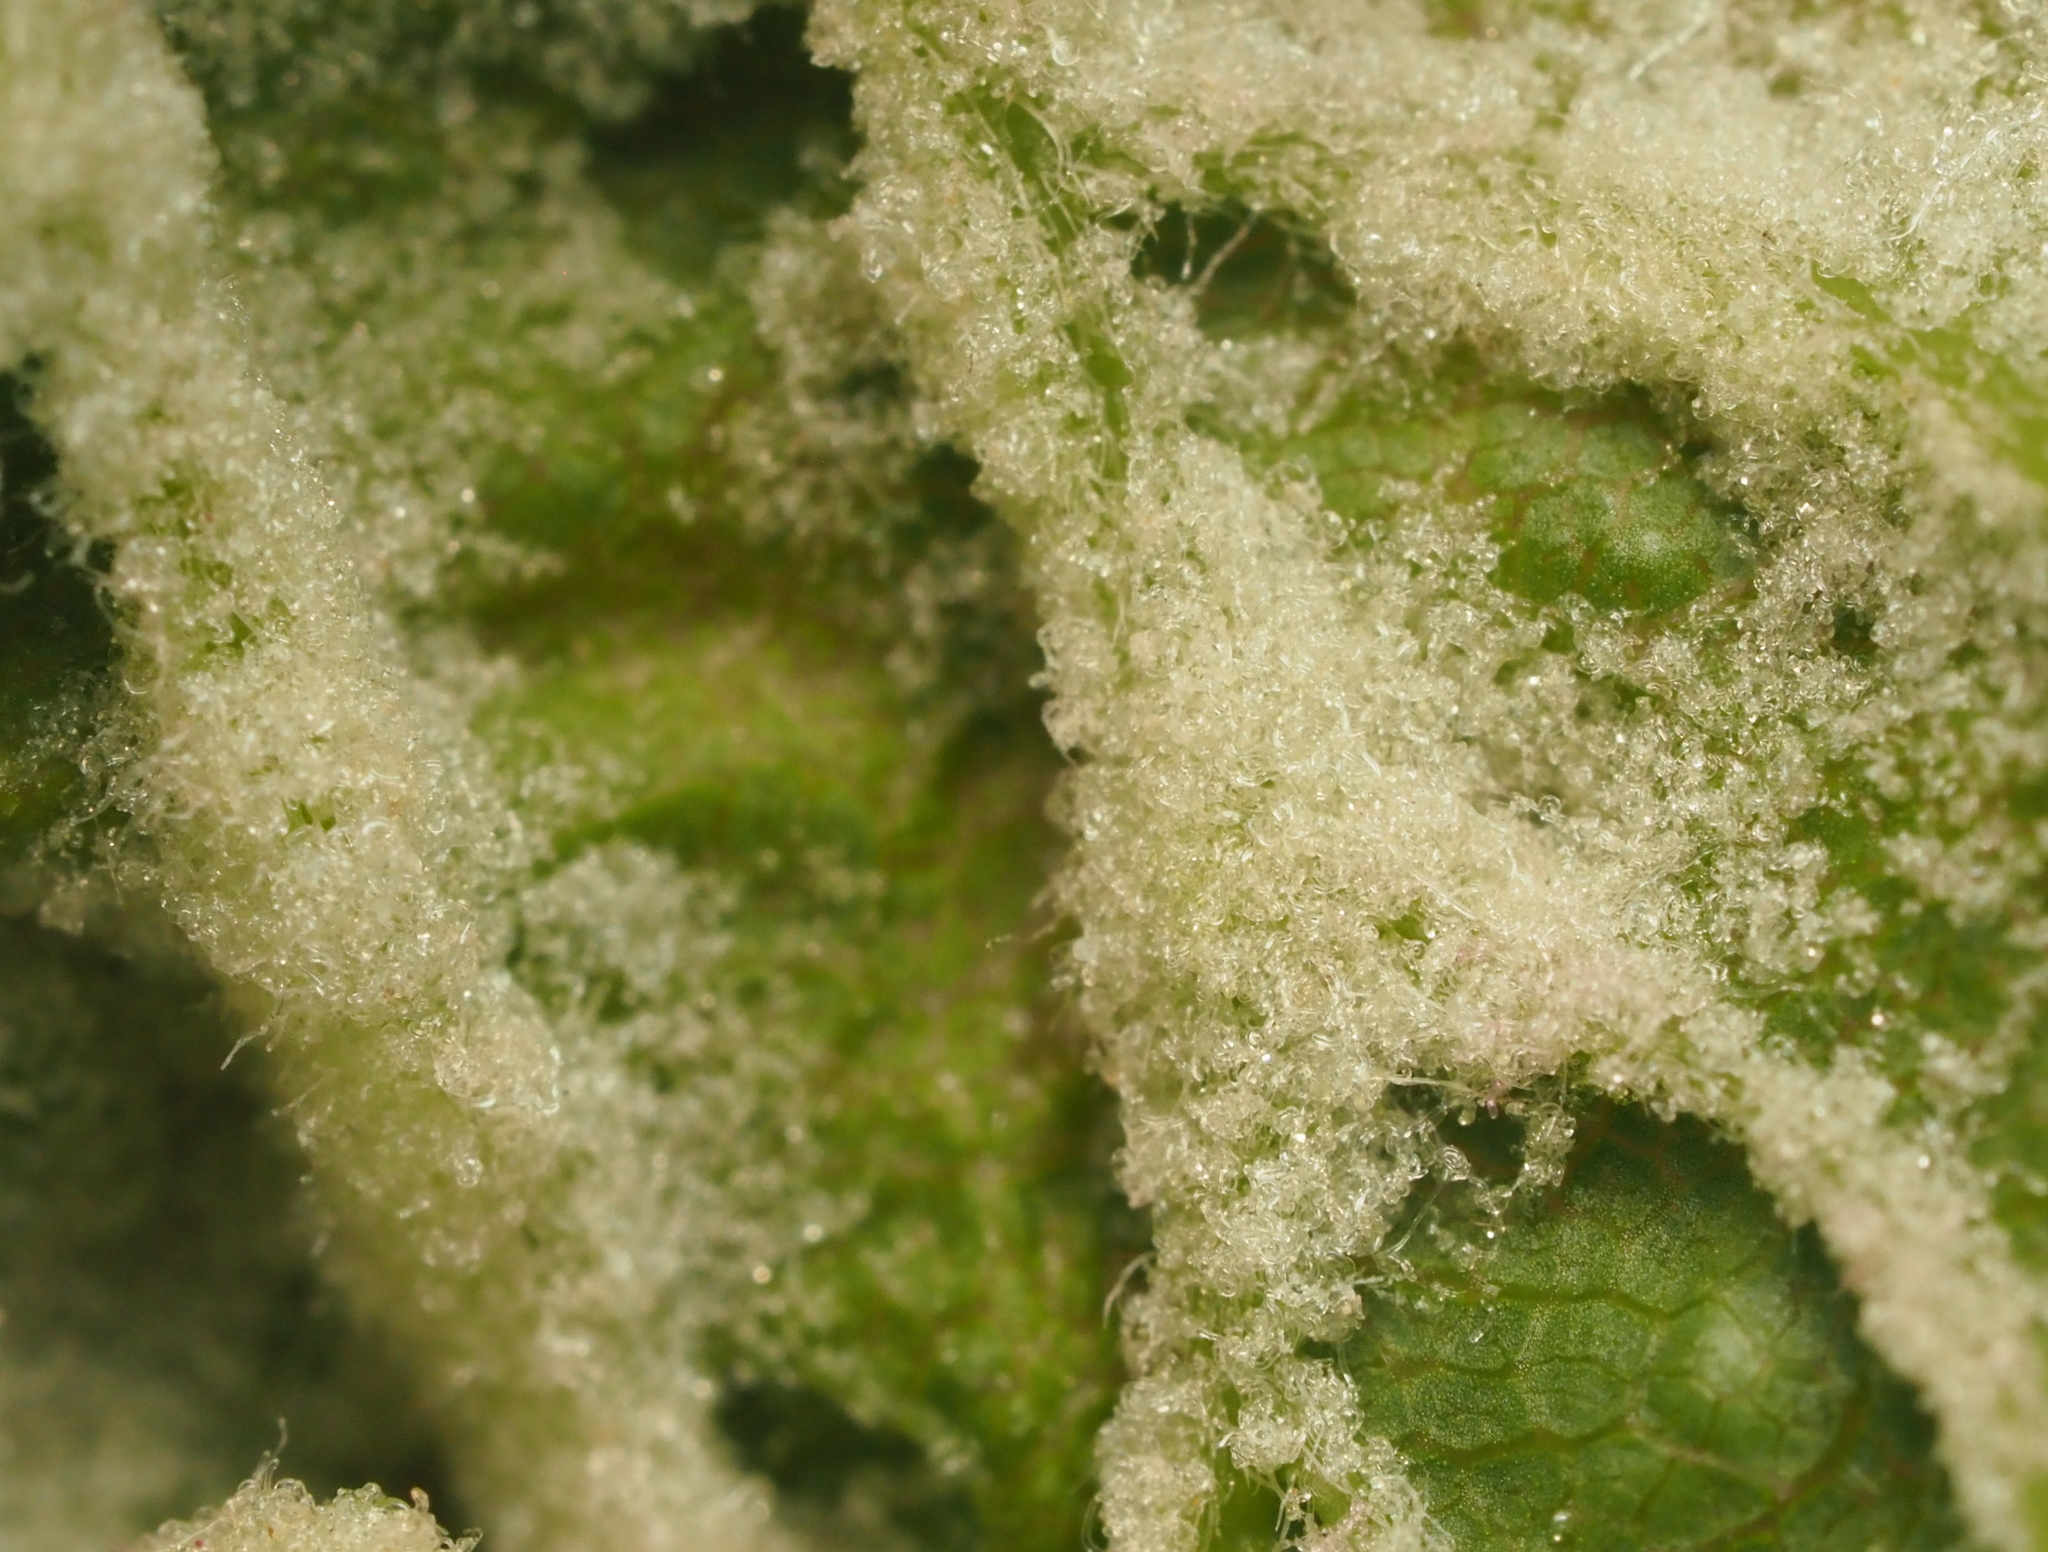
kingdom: Animalia
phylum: Arthropoda
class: Arachnida
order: Trombidiformes
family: Eriophyidae
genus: Aceria
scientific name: Aceria
